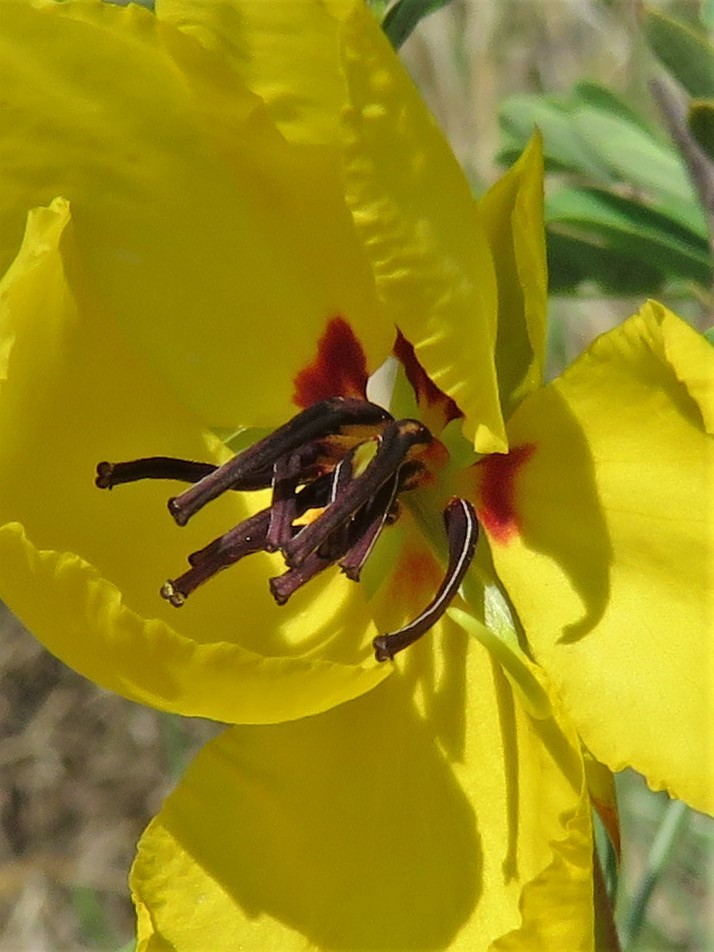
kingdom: Plantae
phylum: Tracheophyta
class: Magnoliopsida
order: Fabales
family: Fabaceae
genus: Chamaecrista
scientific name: Chamaecrista fasciculata
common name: Golden cassia
